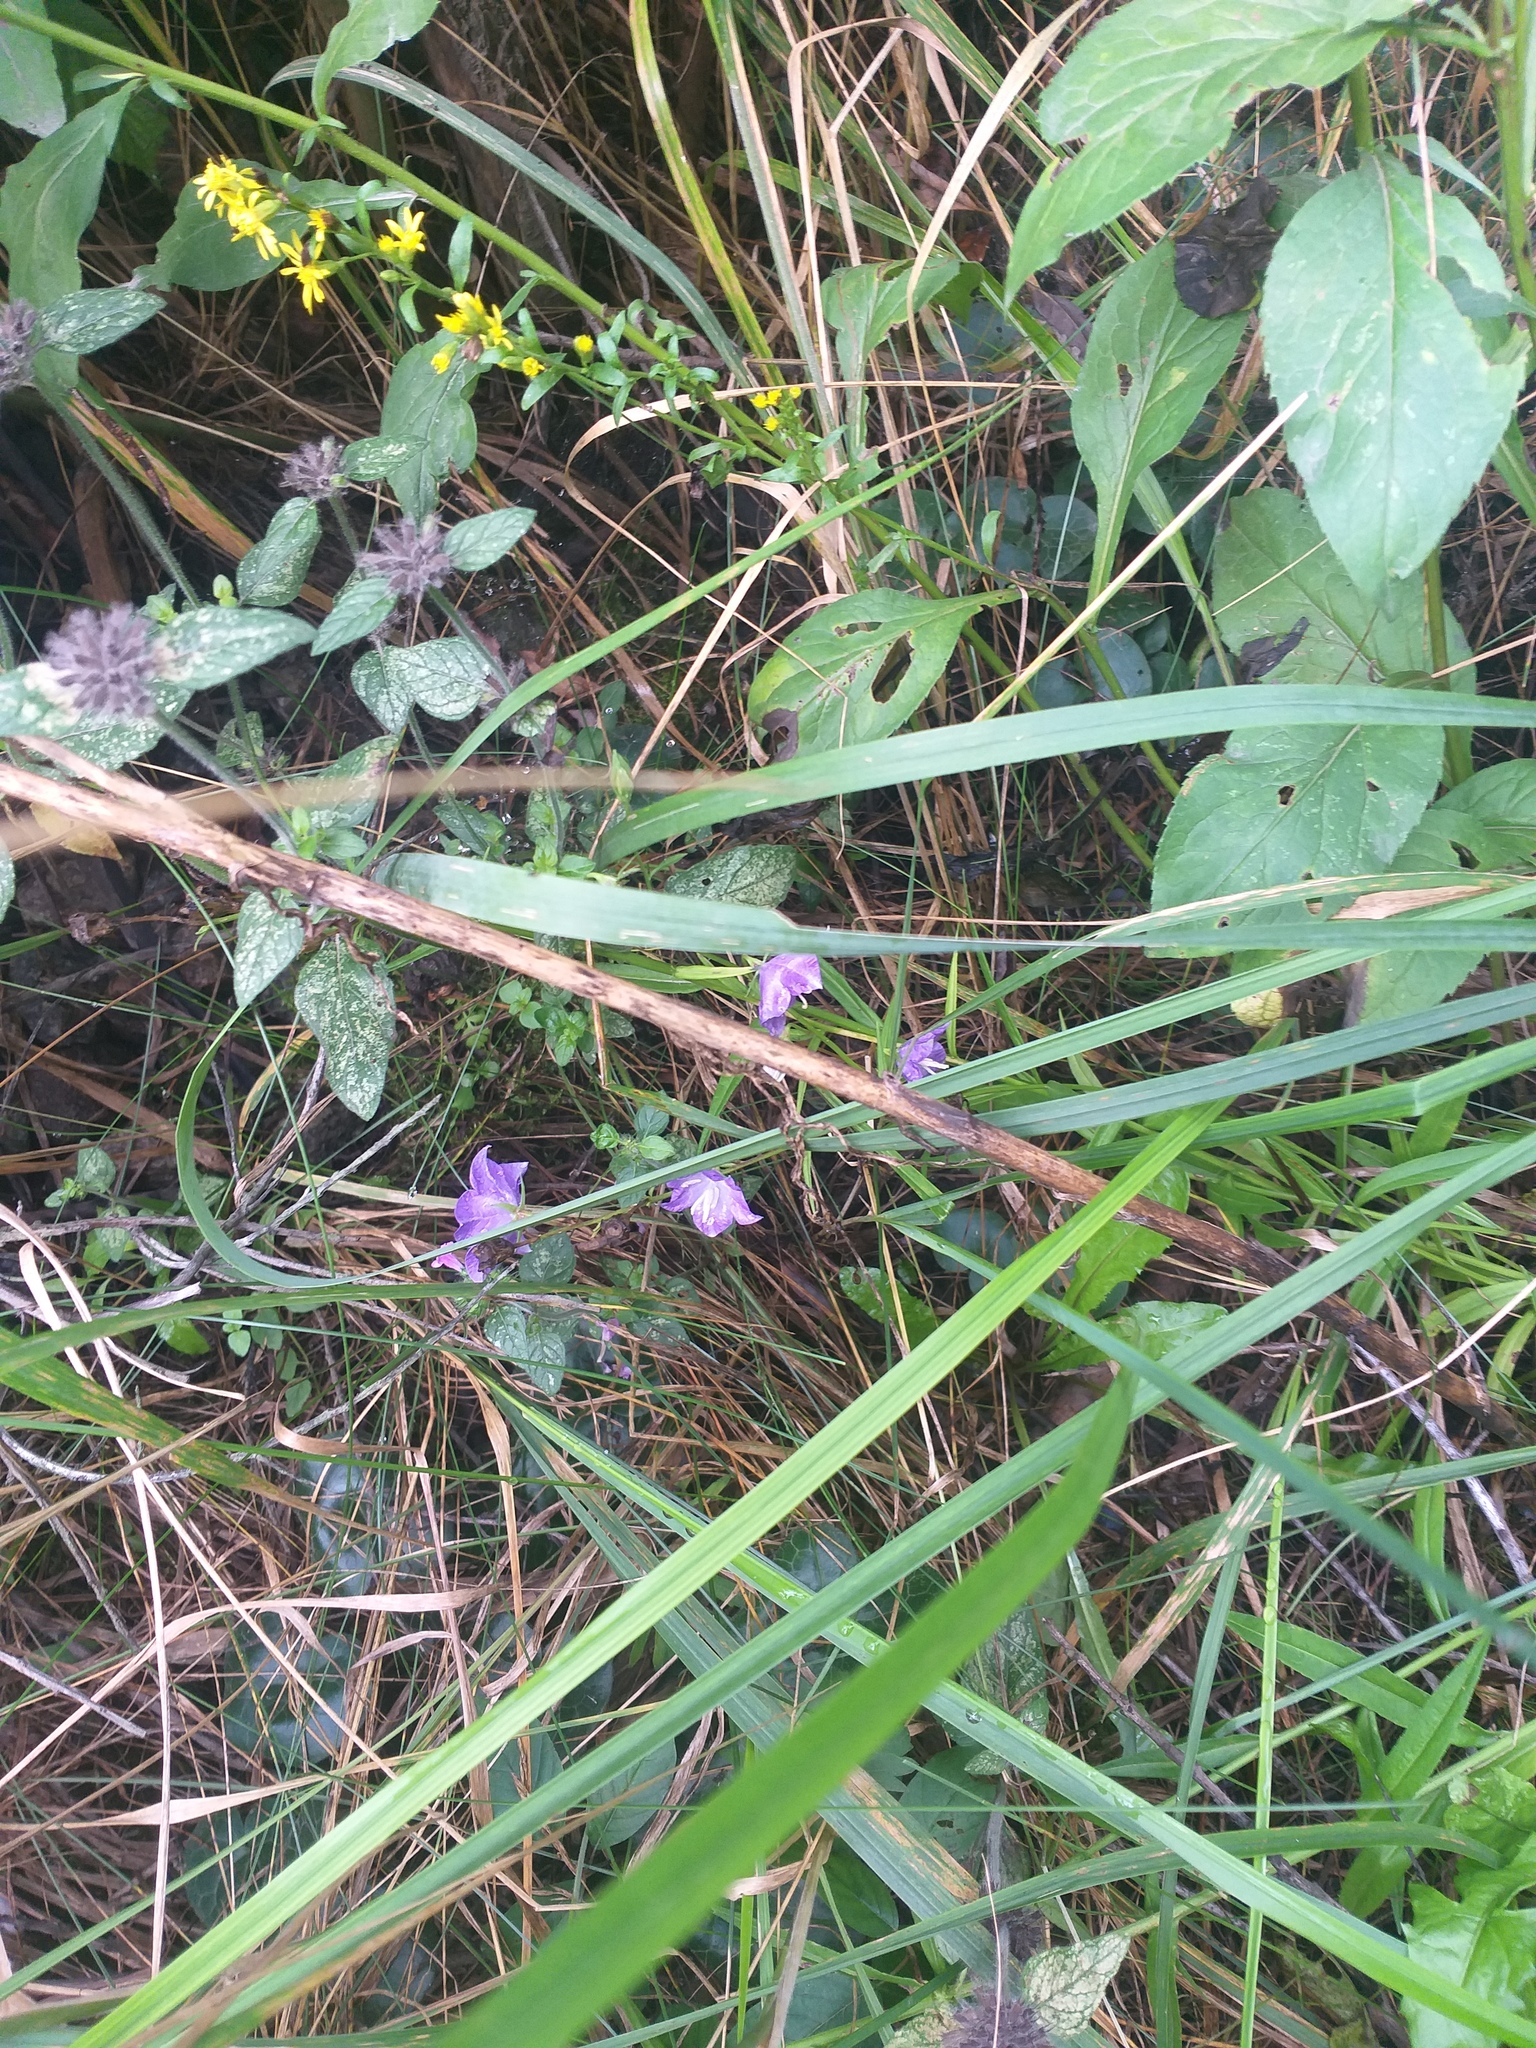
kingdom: Plantae
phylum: Tracheophyta
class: Magnoliopsida
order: Asterales
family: Campanulaceae
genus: Campanula
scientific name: Campanula persicifolia
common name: Peach-leaved bellflower
